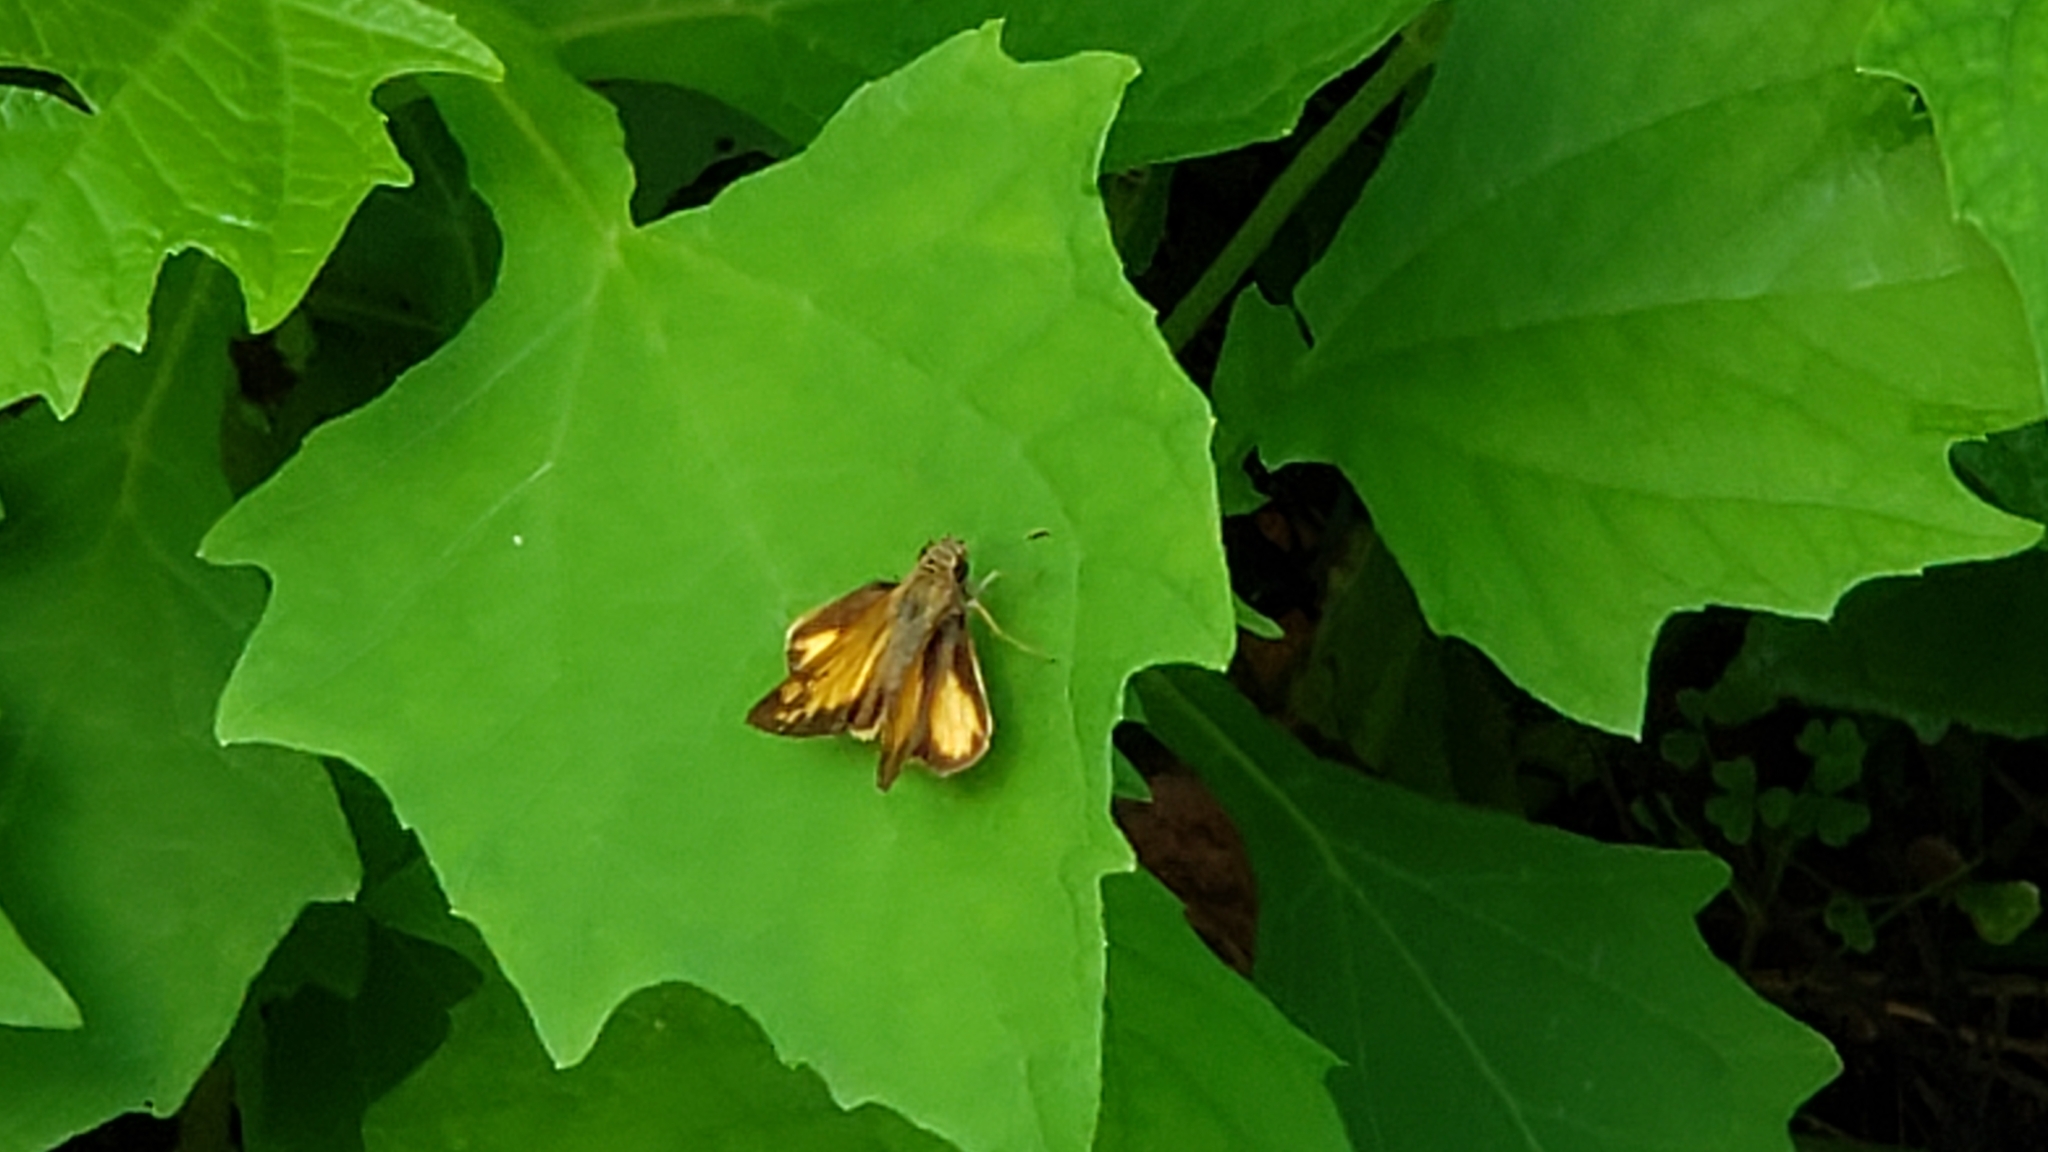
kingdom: Animalia
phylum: Arthropoda
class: Insecta
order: Lepidoptera
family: Hesperiidae
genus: Lon
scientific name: Lon zabulon
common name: Zabulon skipper
